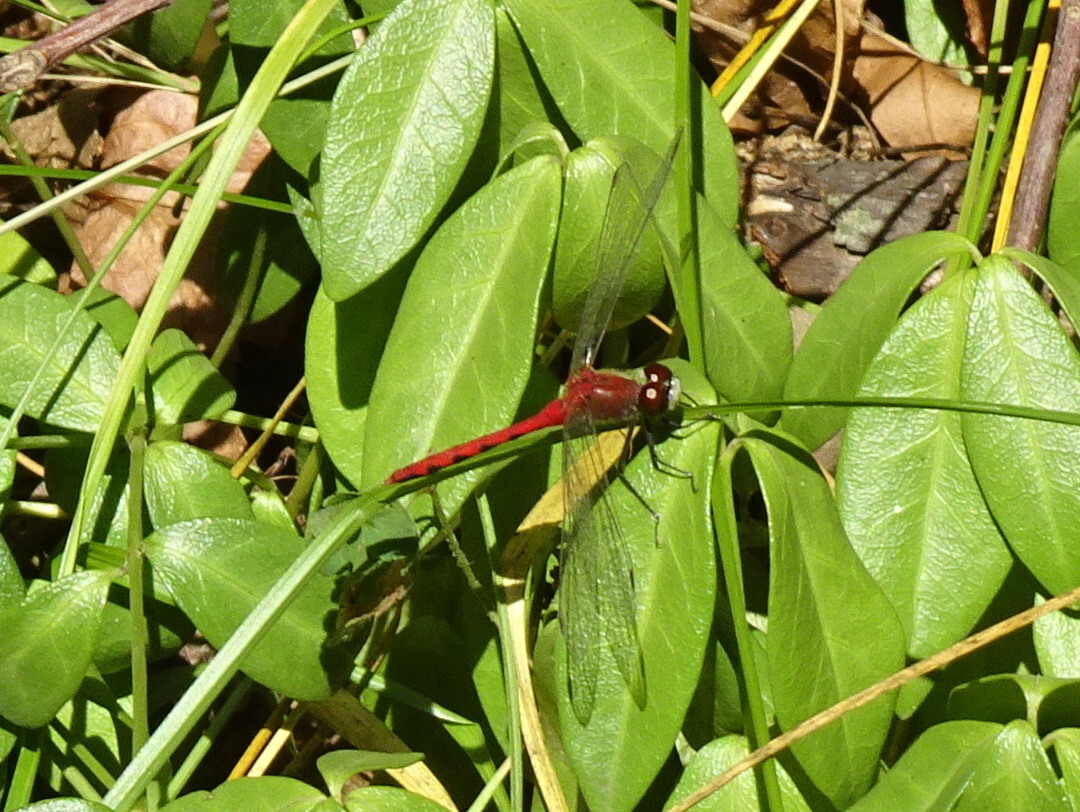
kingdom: Animalia
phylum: Arthropoda
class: Insecta
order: Odonata
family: Libellulidae
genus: Sympetrum
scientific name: Sympetrum obtrusum
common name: White-faced meadowhawk
